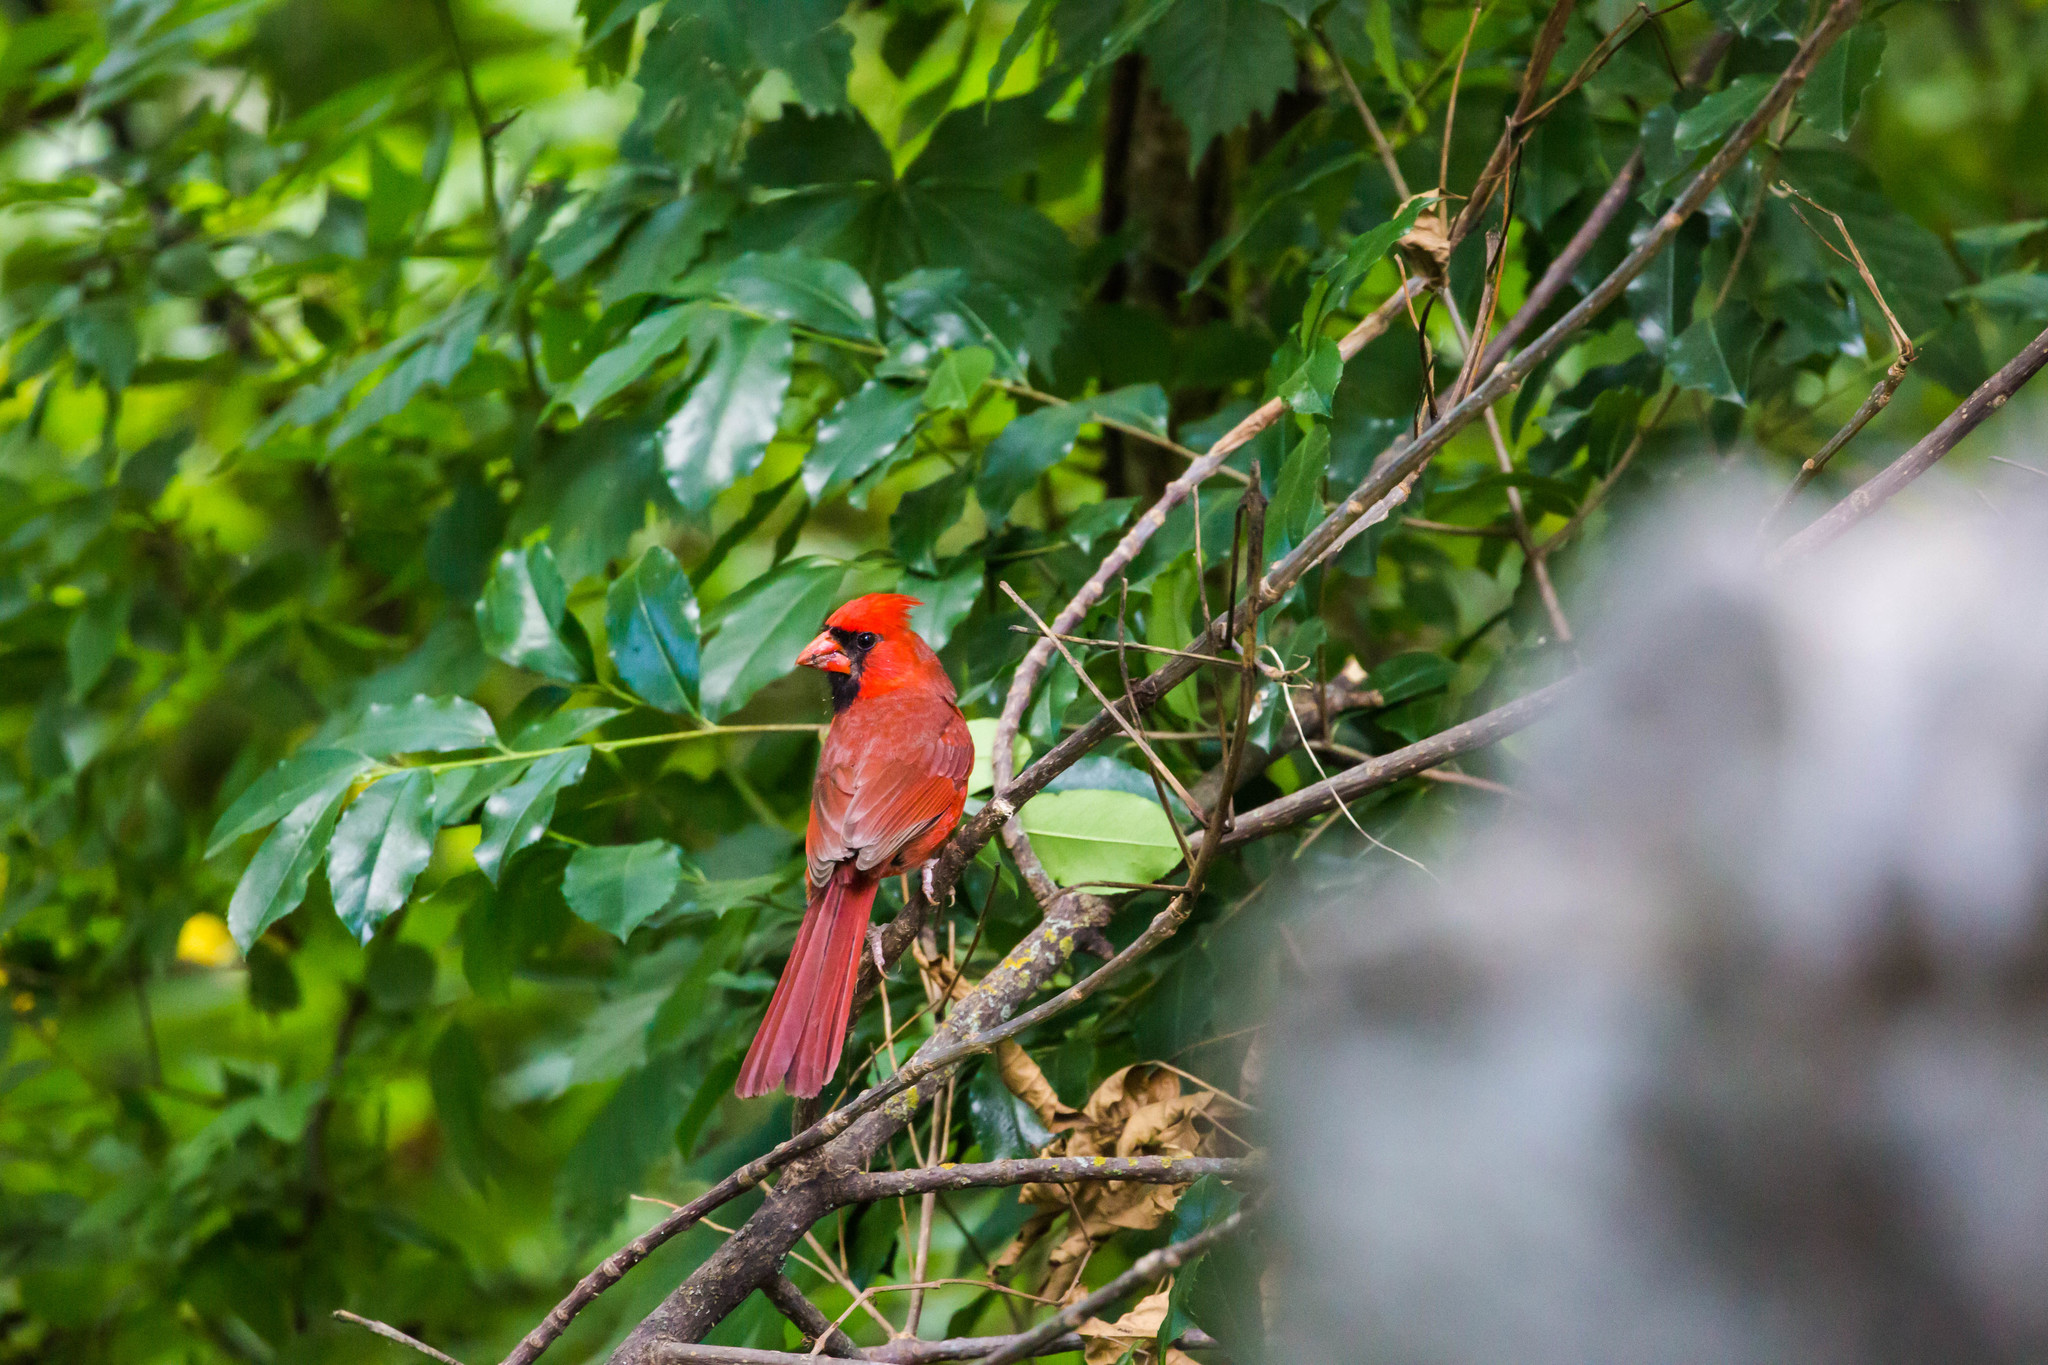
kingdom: Animalia
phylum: Chordata
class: Aves
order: Passeriformes
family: Cardinalidae
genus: Cardinalis
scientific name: Cardinalis cardinalis
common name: Northern cardinal
